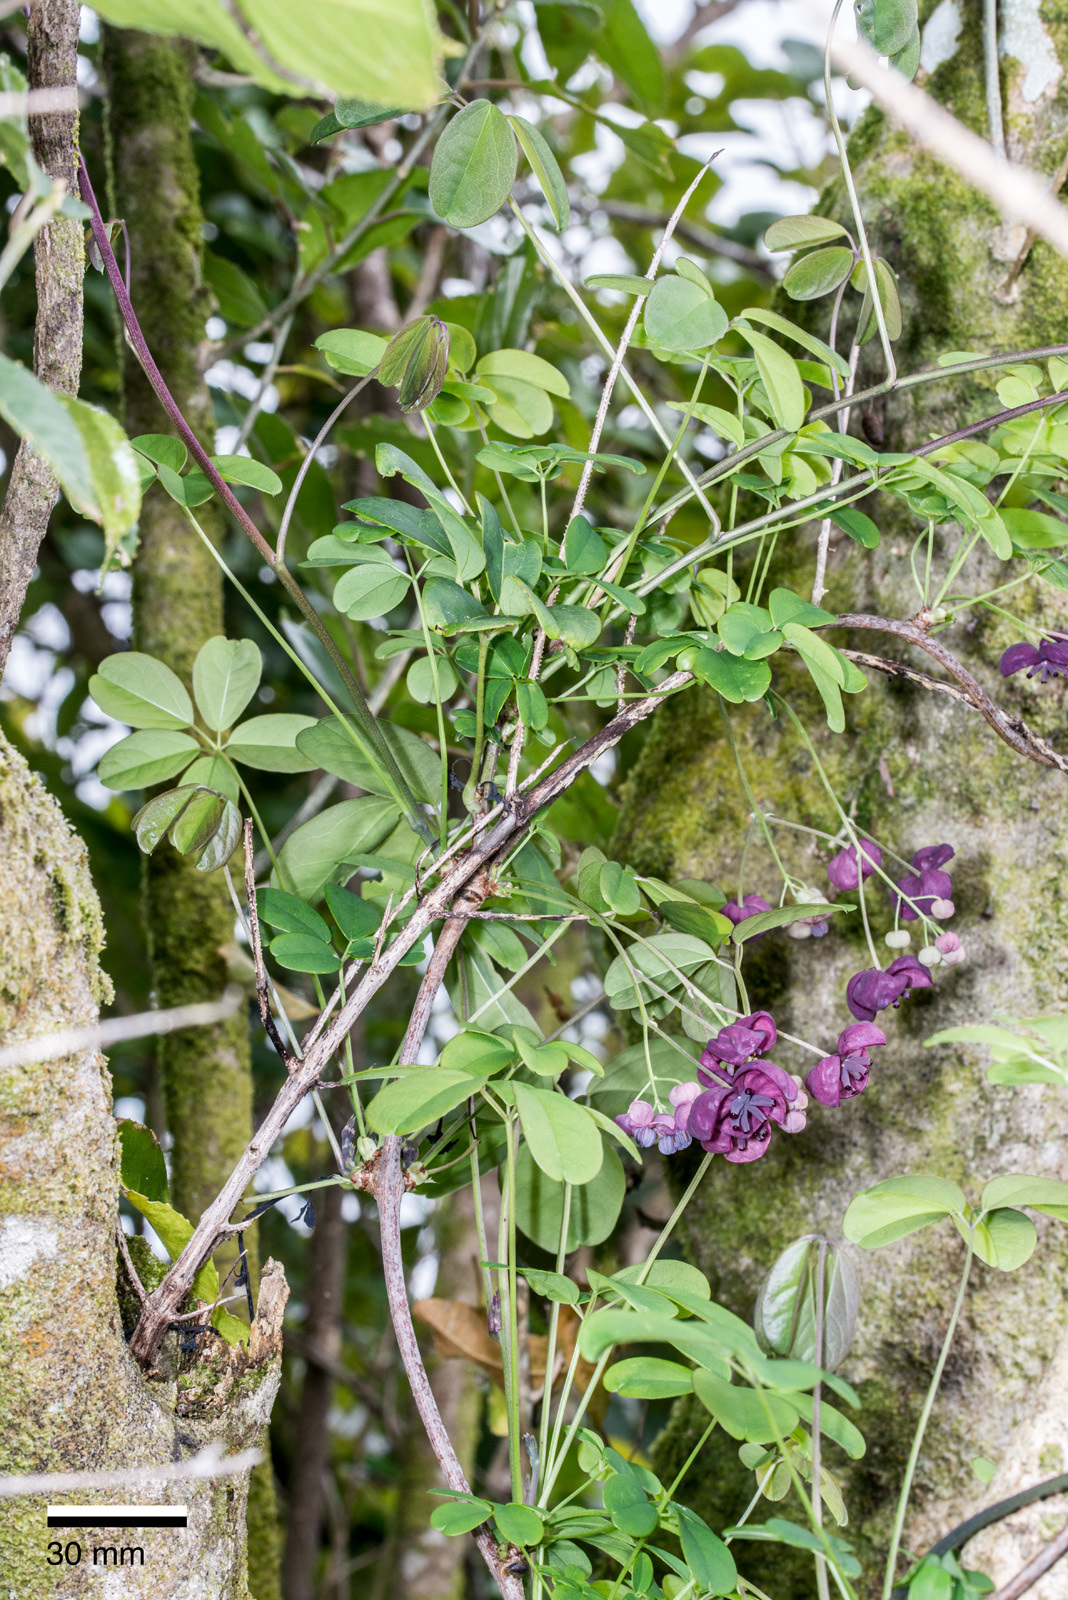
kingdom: Plantae
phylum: Tracheophyta
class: Magnoliopsida
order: Ranunculales
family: Lardizabalaceae
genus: Akebia
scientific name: Akebia quinata
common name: Five-leaf akebia
